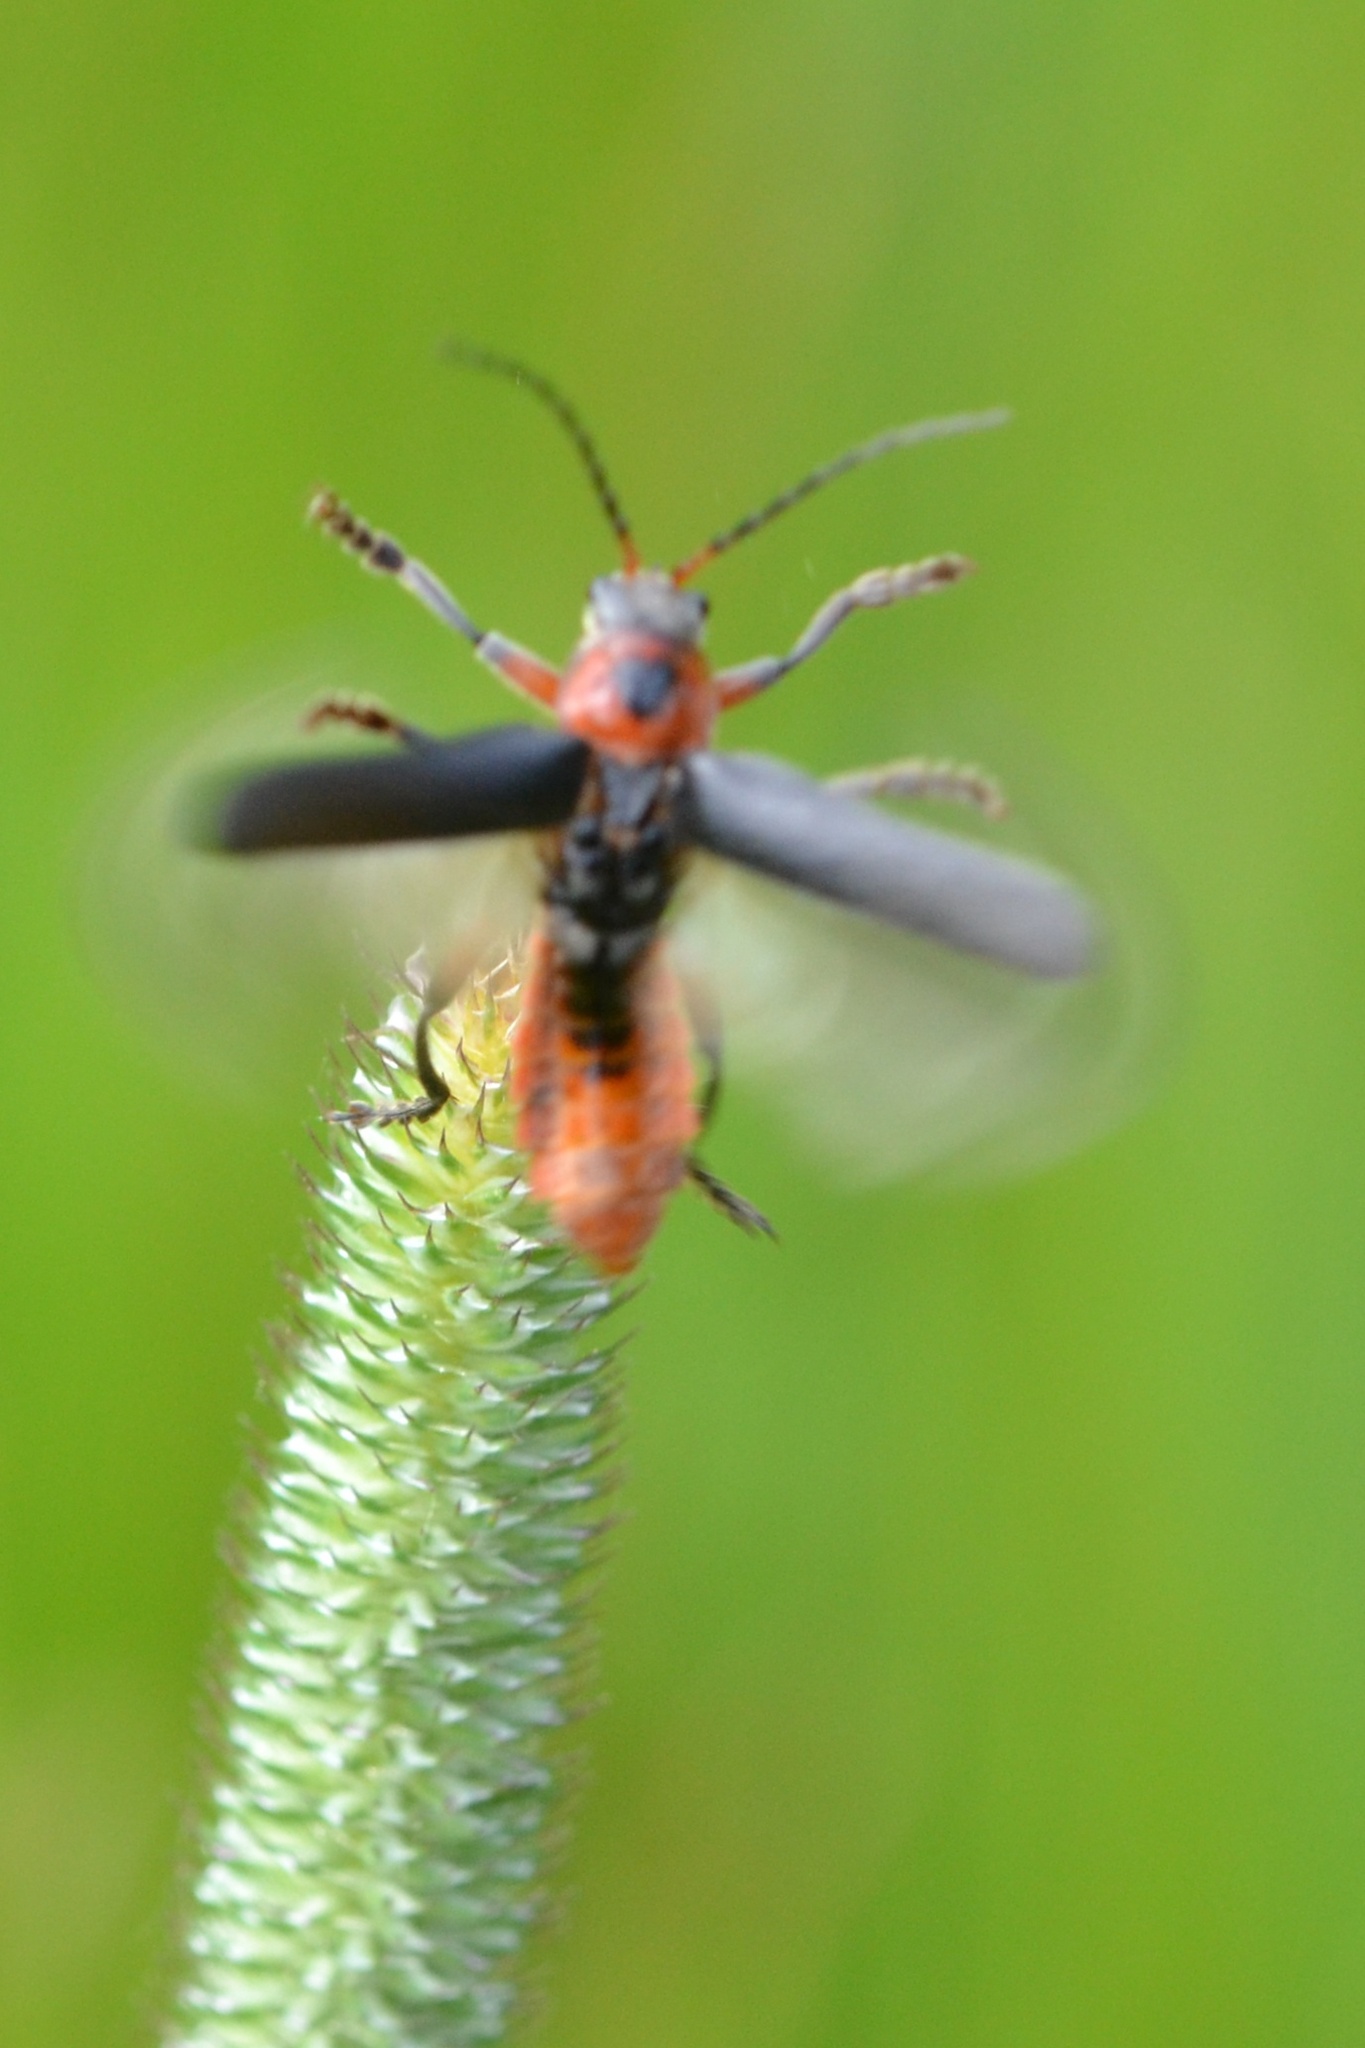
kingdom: Animalia
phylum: Arthropoda
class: Insecta
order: Coleoptera
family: Cantharidae
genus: Cantharis
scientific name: Cantharis rustica
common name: Soldier beetle
